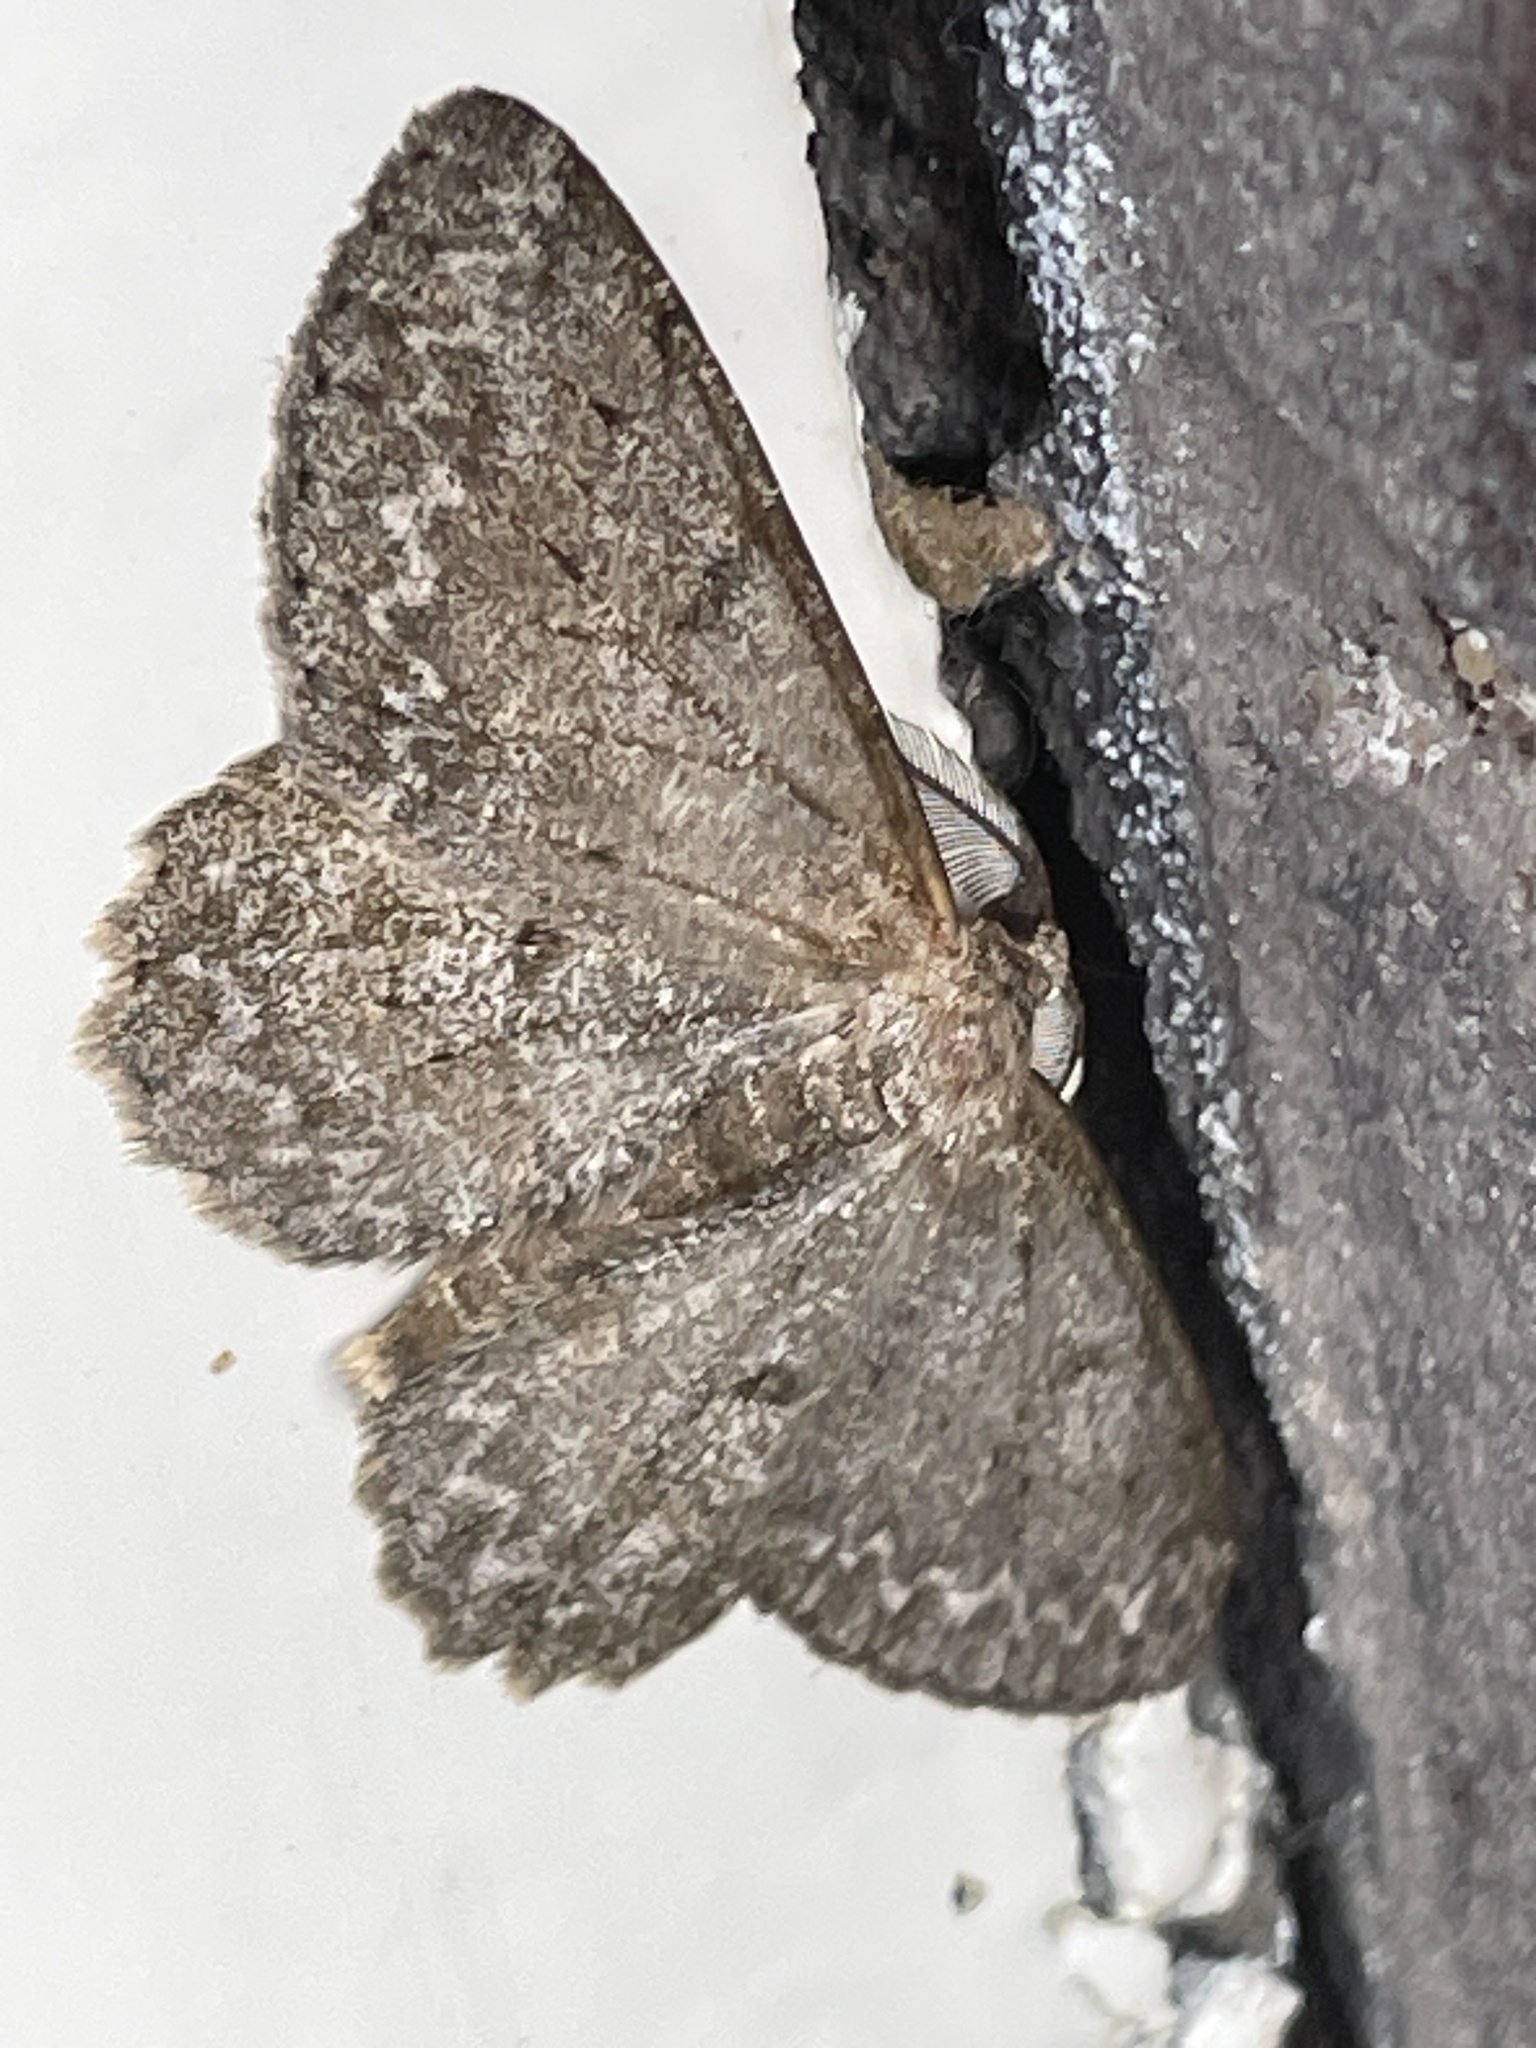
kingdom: Animalia
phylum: Arthropoda
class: Insecta
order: Lepidoptera
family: Geometridae
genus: Hypomecis
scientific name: Hypomecis punctinalis
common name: Pale oak beauty
